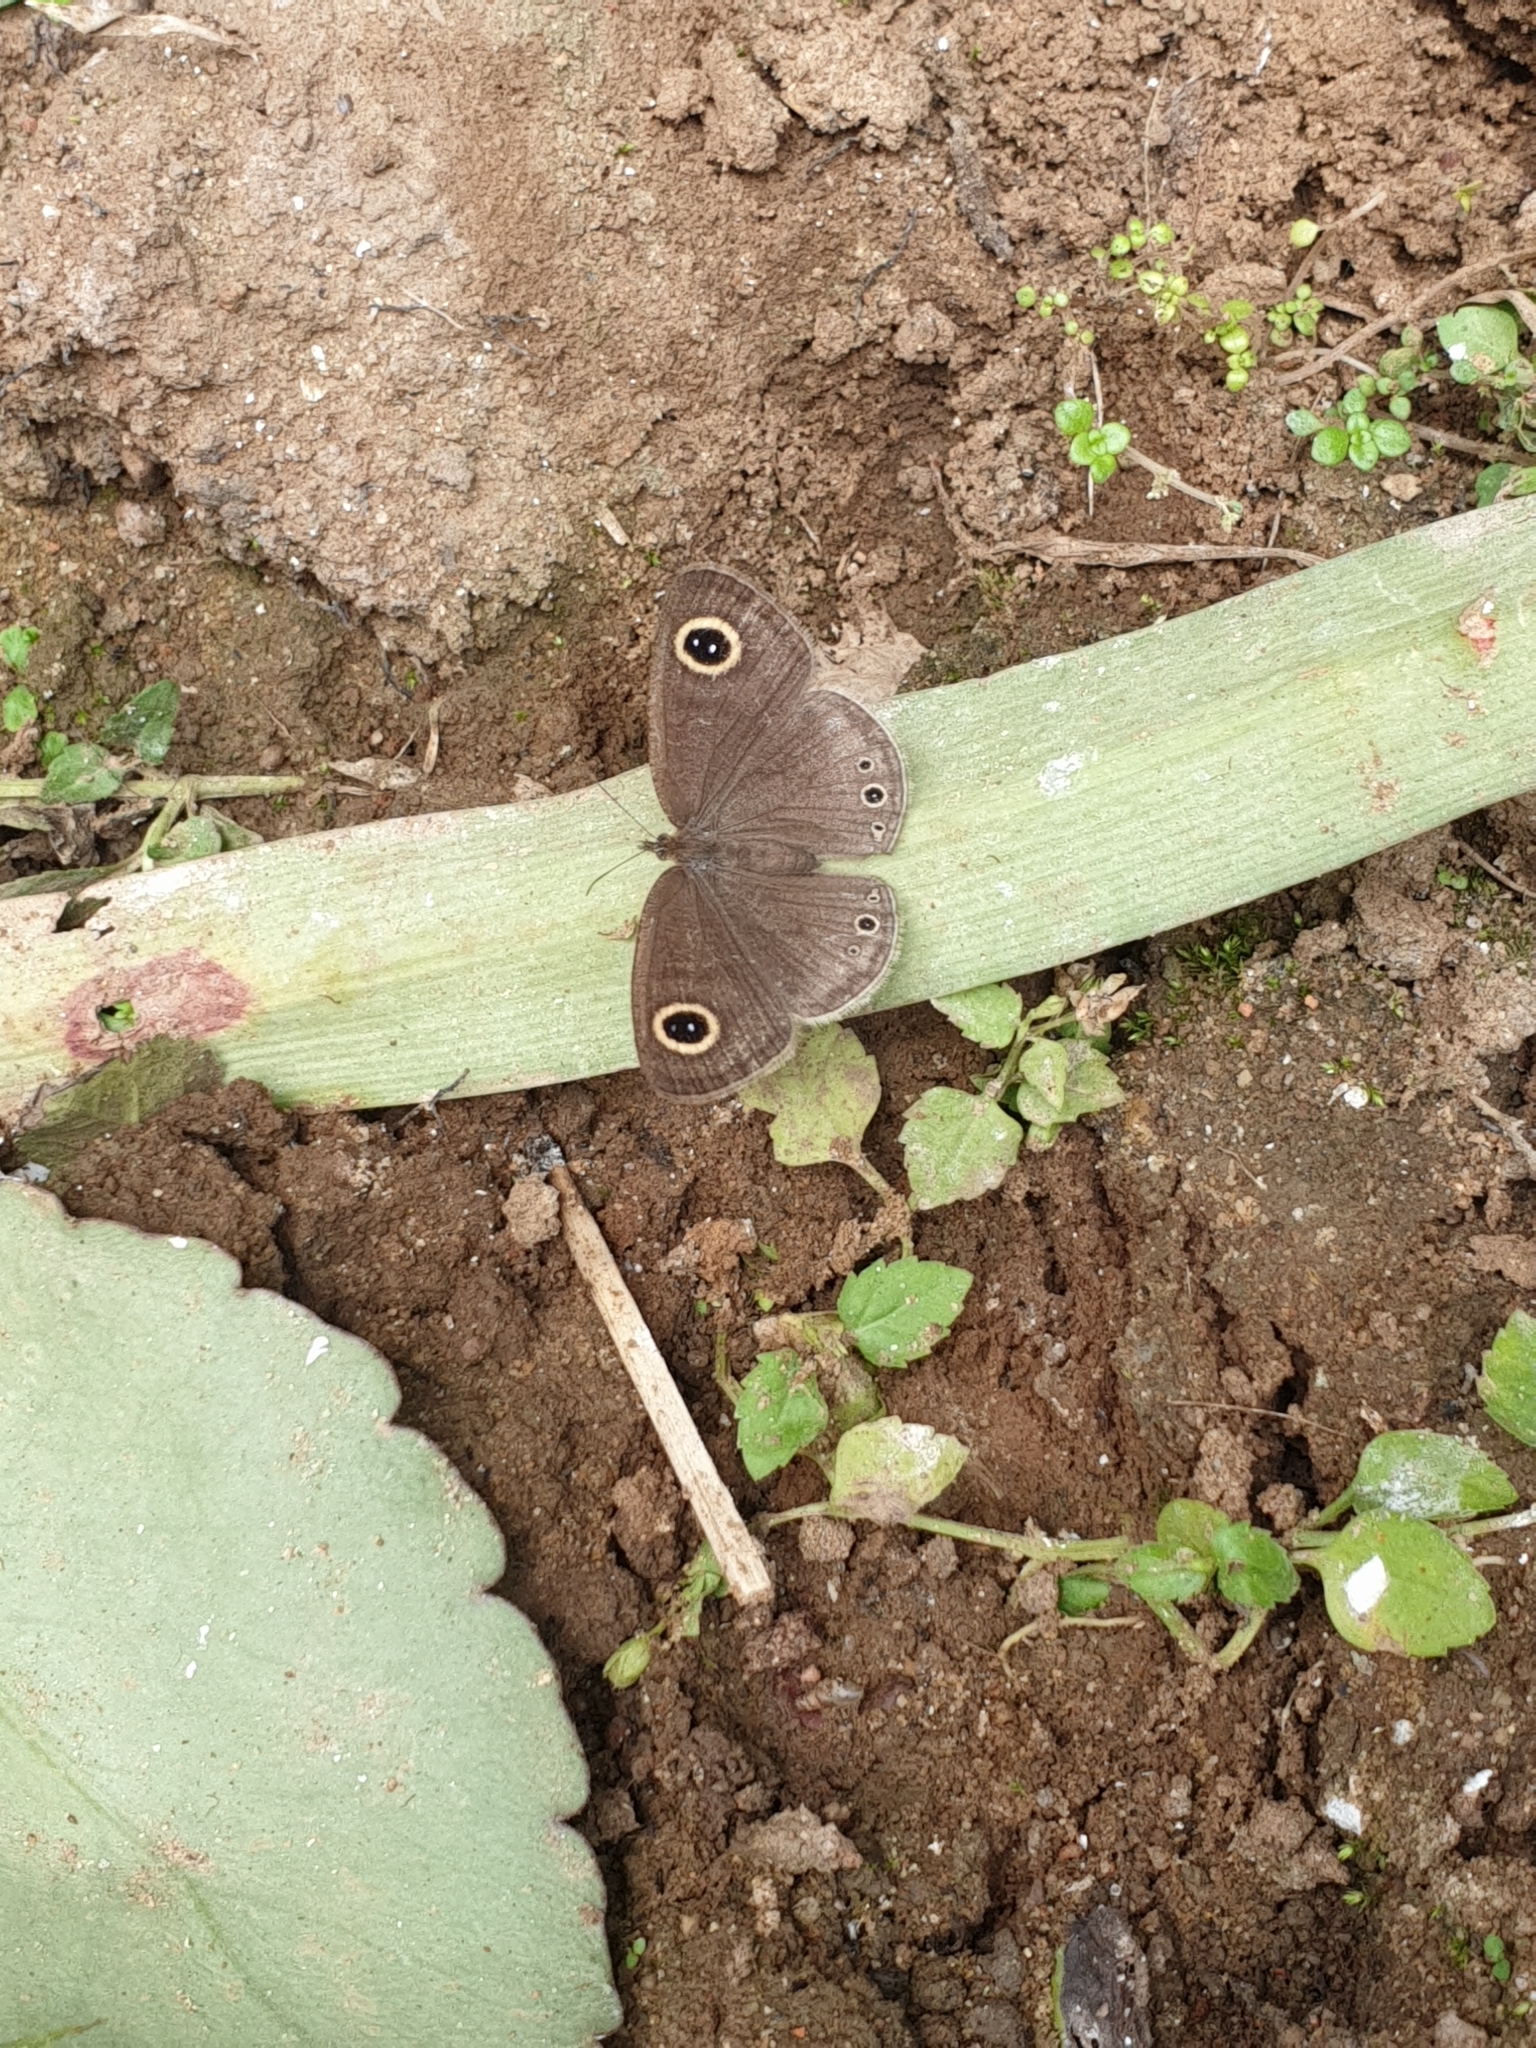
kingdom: Animalia
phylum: Arthropoda
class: Insecta
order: Lepidoptera
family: Nymphalidae
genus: Ypthima
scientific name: Ypthima huebneri
